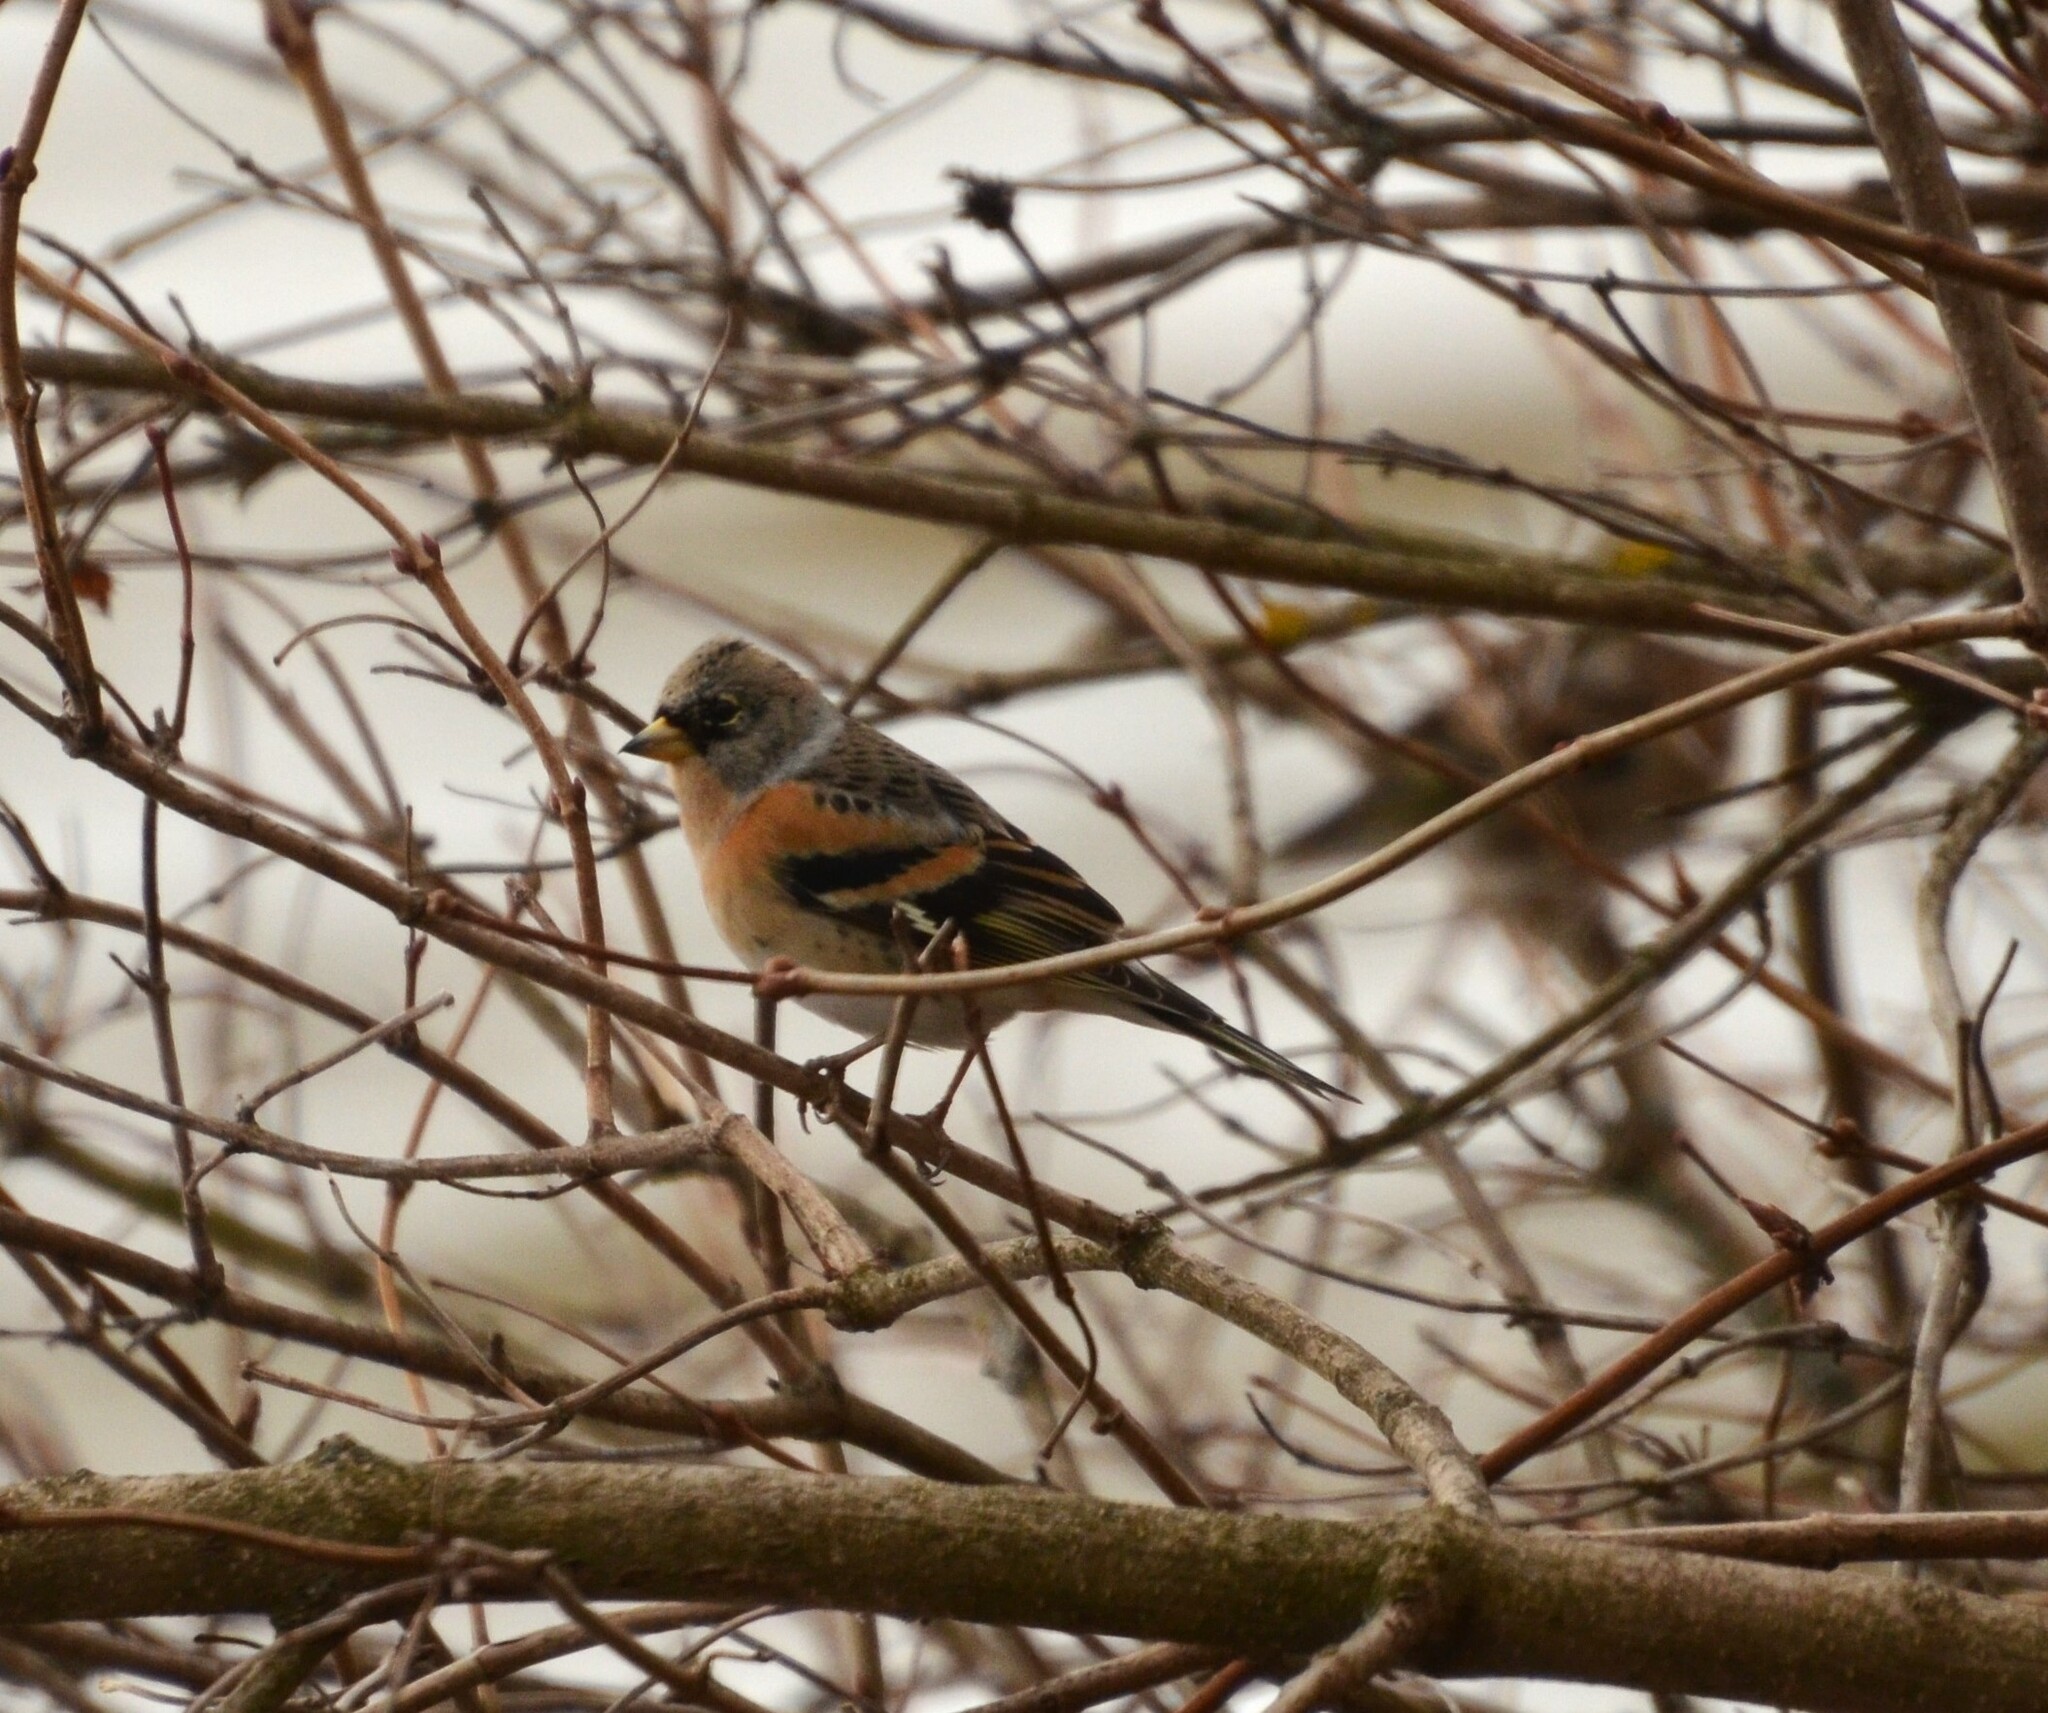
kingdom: Animalia
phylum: Chordata
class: Aves
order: Passeriformes
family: Fringillidae
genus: Fringilla
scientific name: Fringilla montifringilla
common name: Brambling
